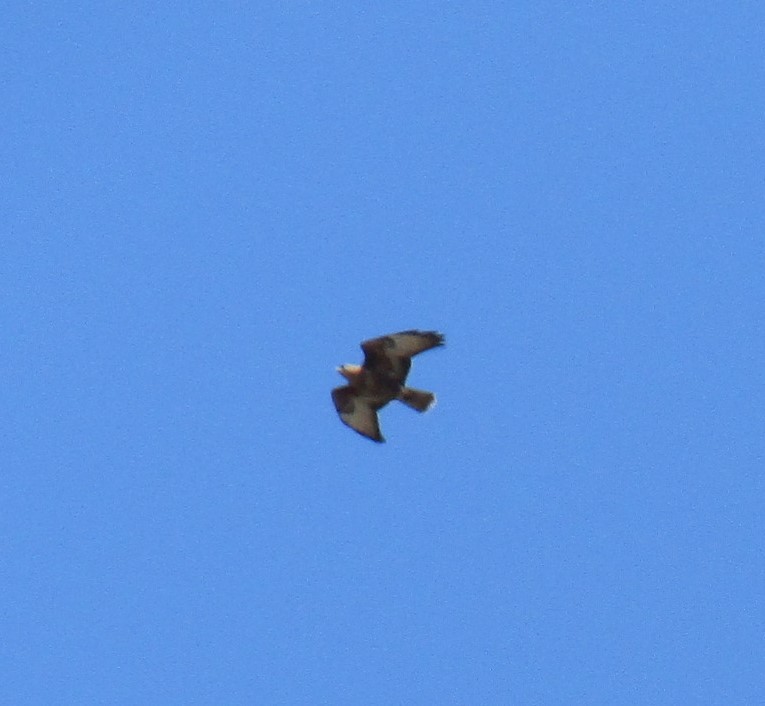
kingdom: Animalia
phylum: Chordata
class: Aves
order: Accipitriformes
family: Accipitridae
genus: Buteo
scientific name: Buteo buteo
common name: Common buzzard
